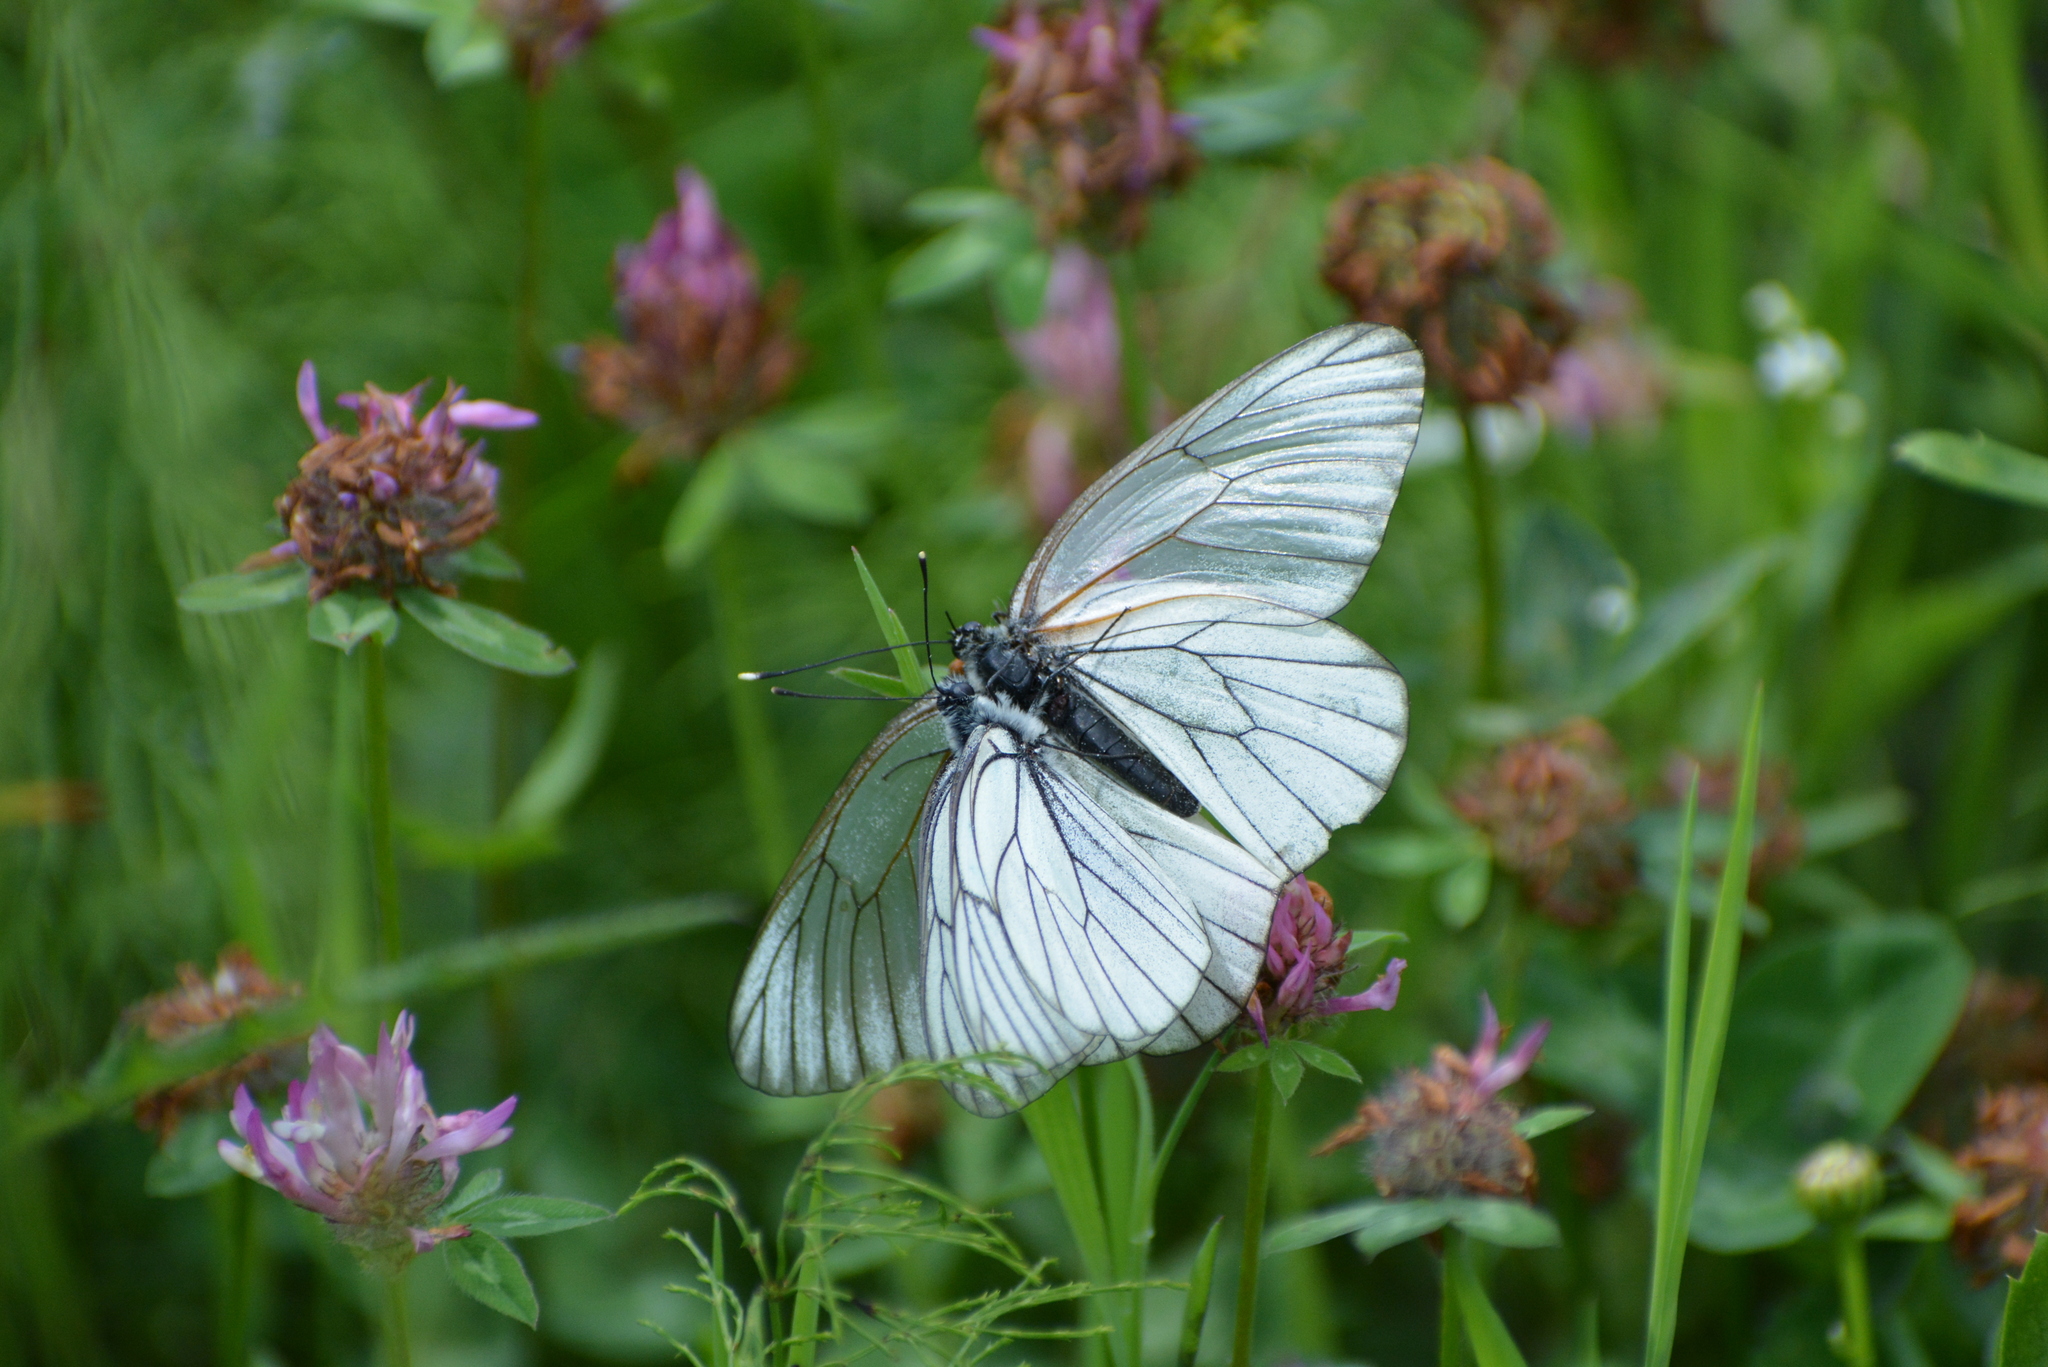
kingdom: Animalia
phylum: Arthropoda
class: Insecta
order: Lepidoptera
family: Pieridae
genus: Aporia
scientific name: Aporia crataegi
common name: Black-veined white
